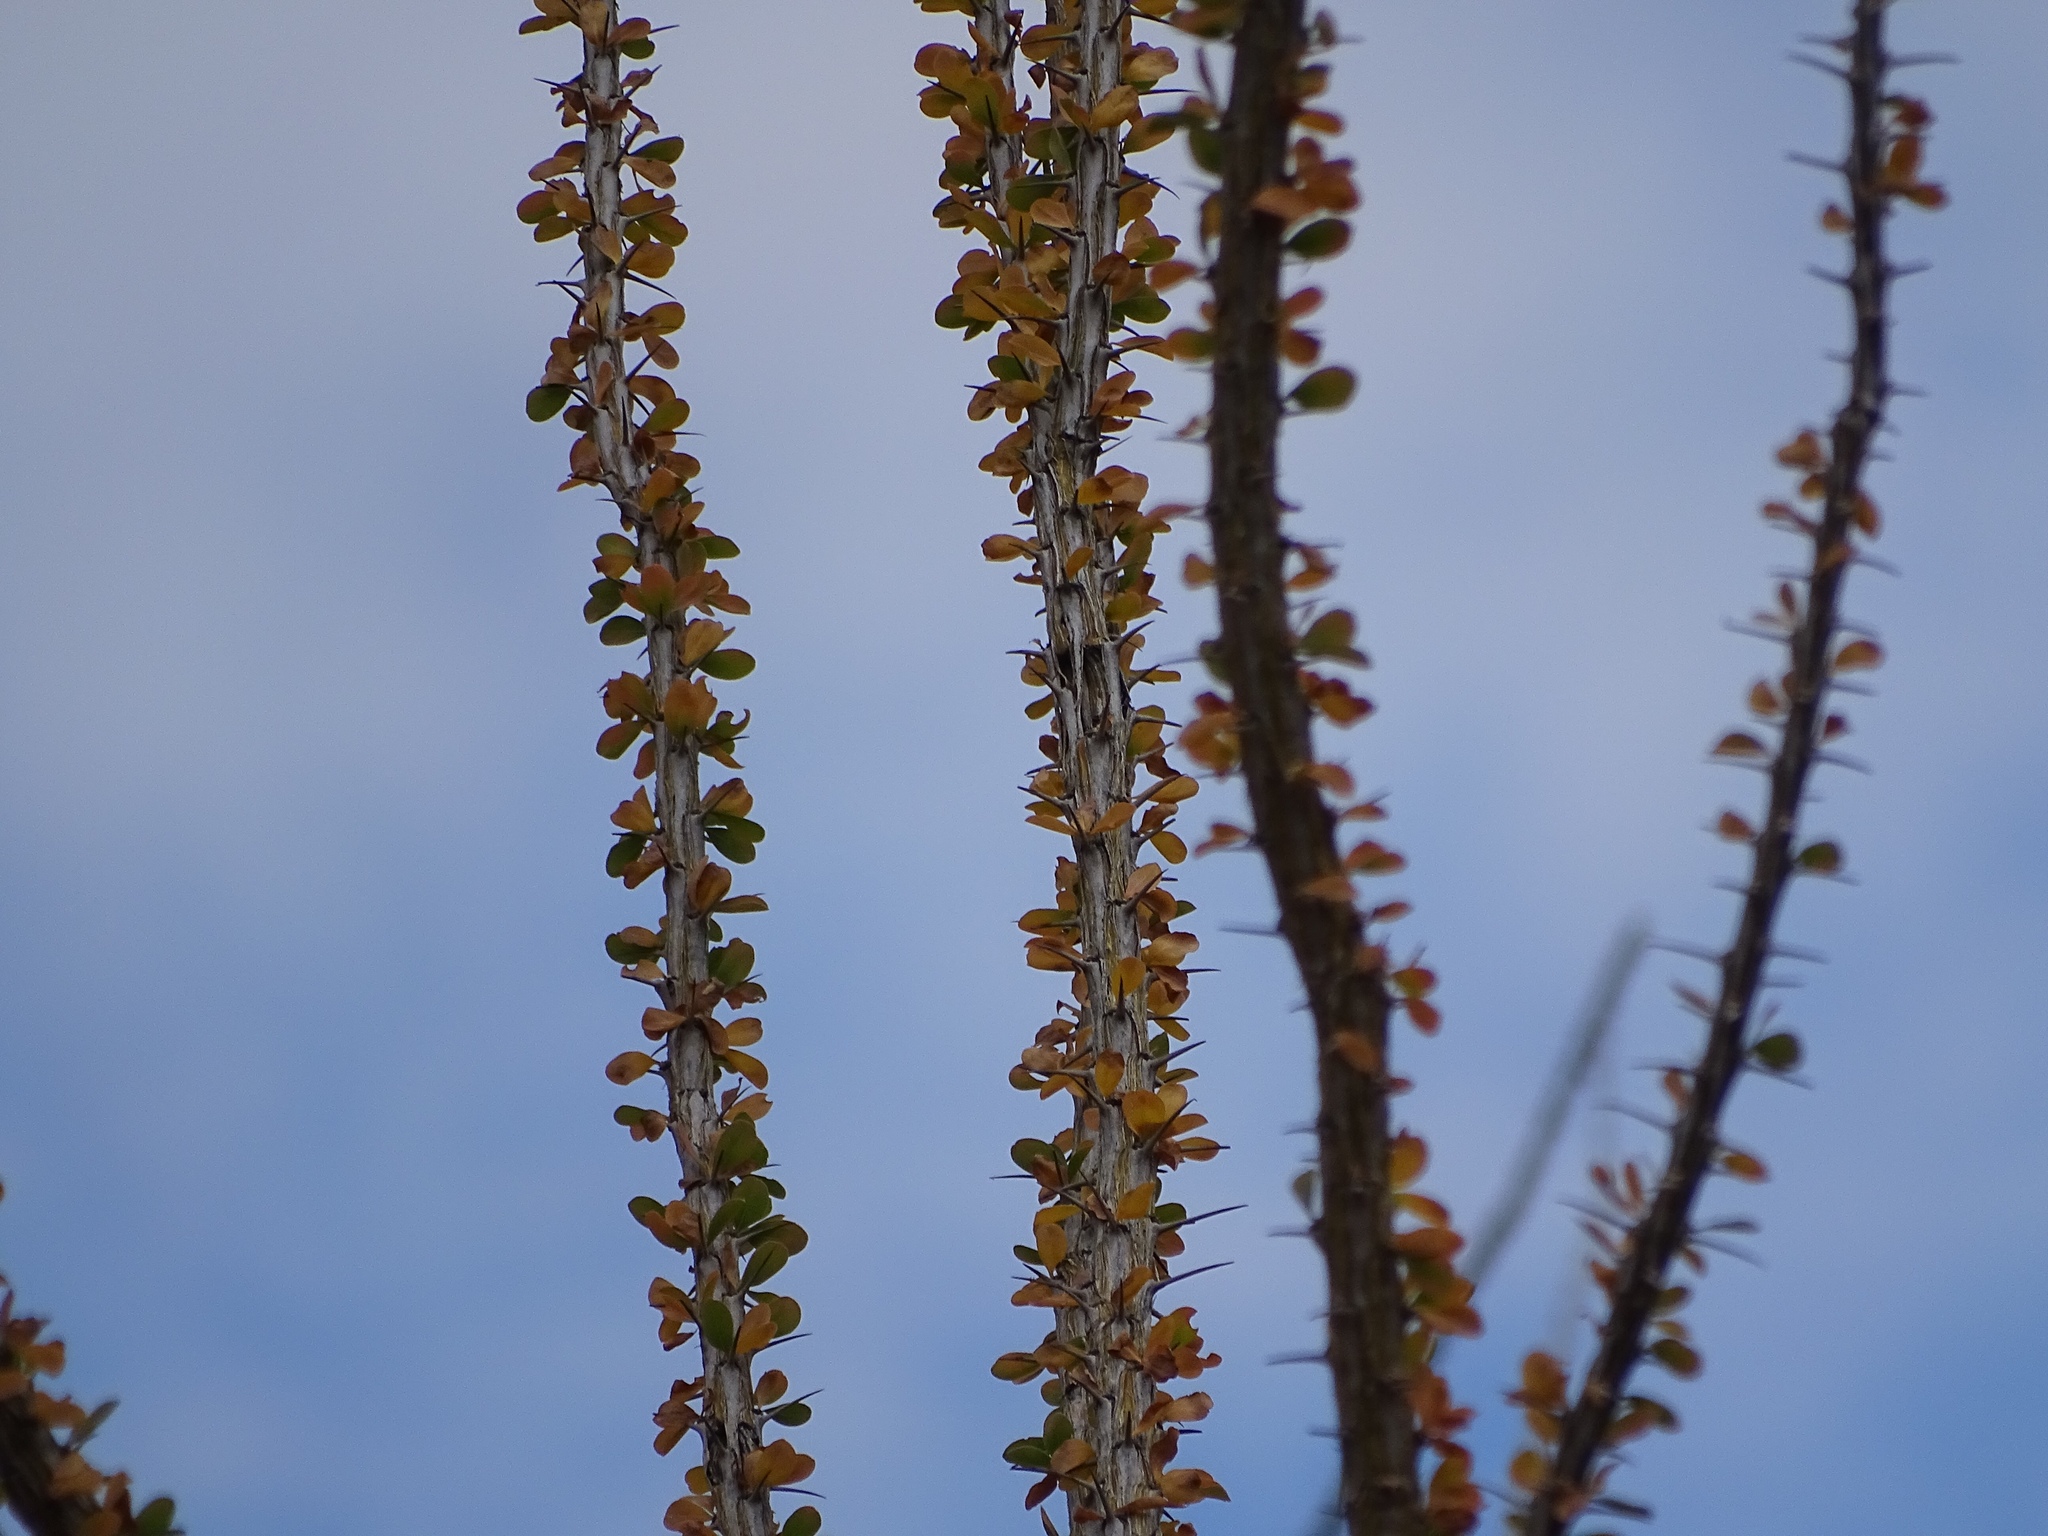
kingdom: Plantae
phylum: Tracheophyta
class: Magnoliopsida
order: Ericales
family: Fouquieriaceae
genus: Fouquieria
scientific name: Fouquieria splendens
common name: Vine-cactus
